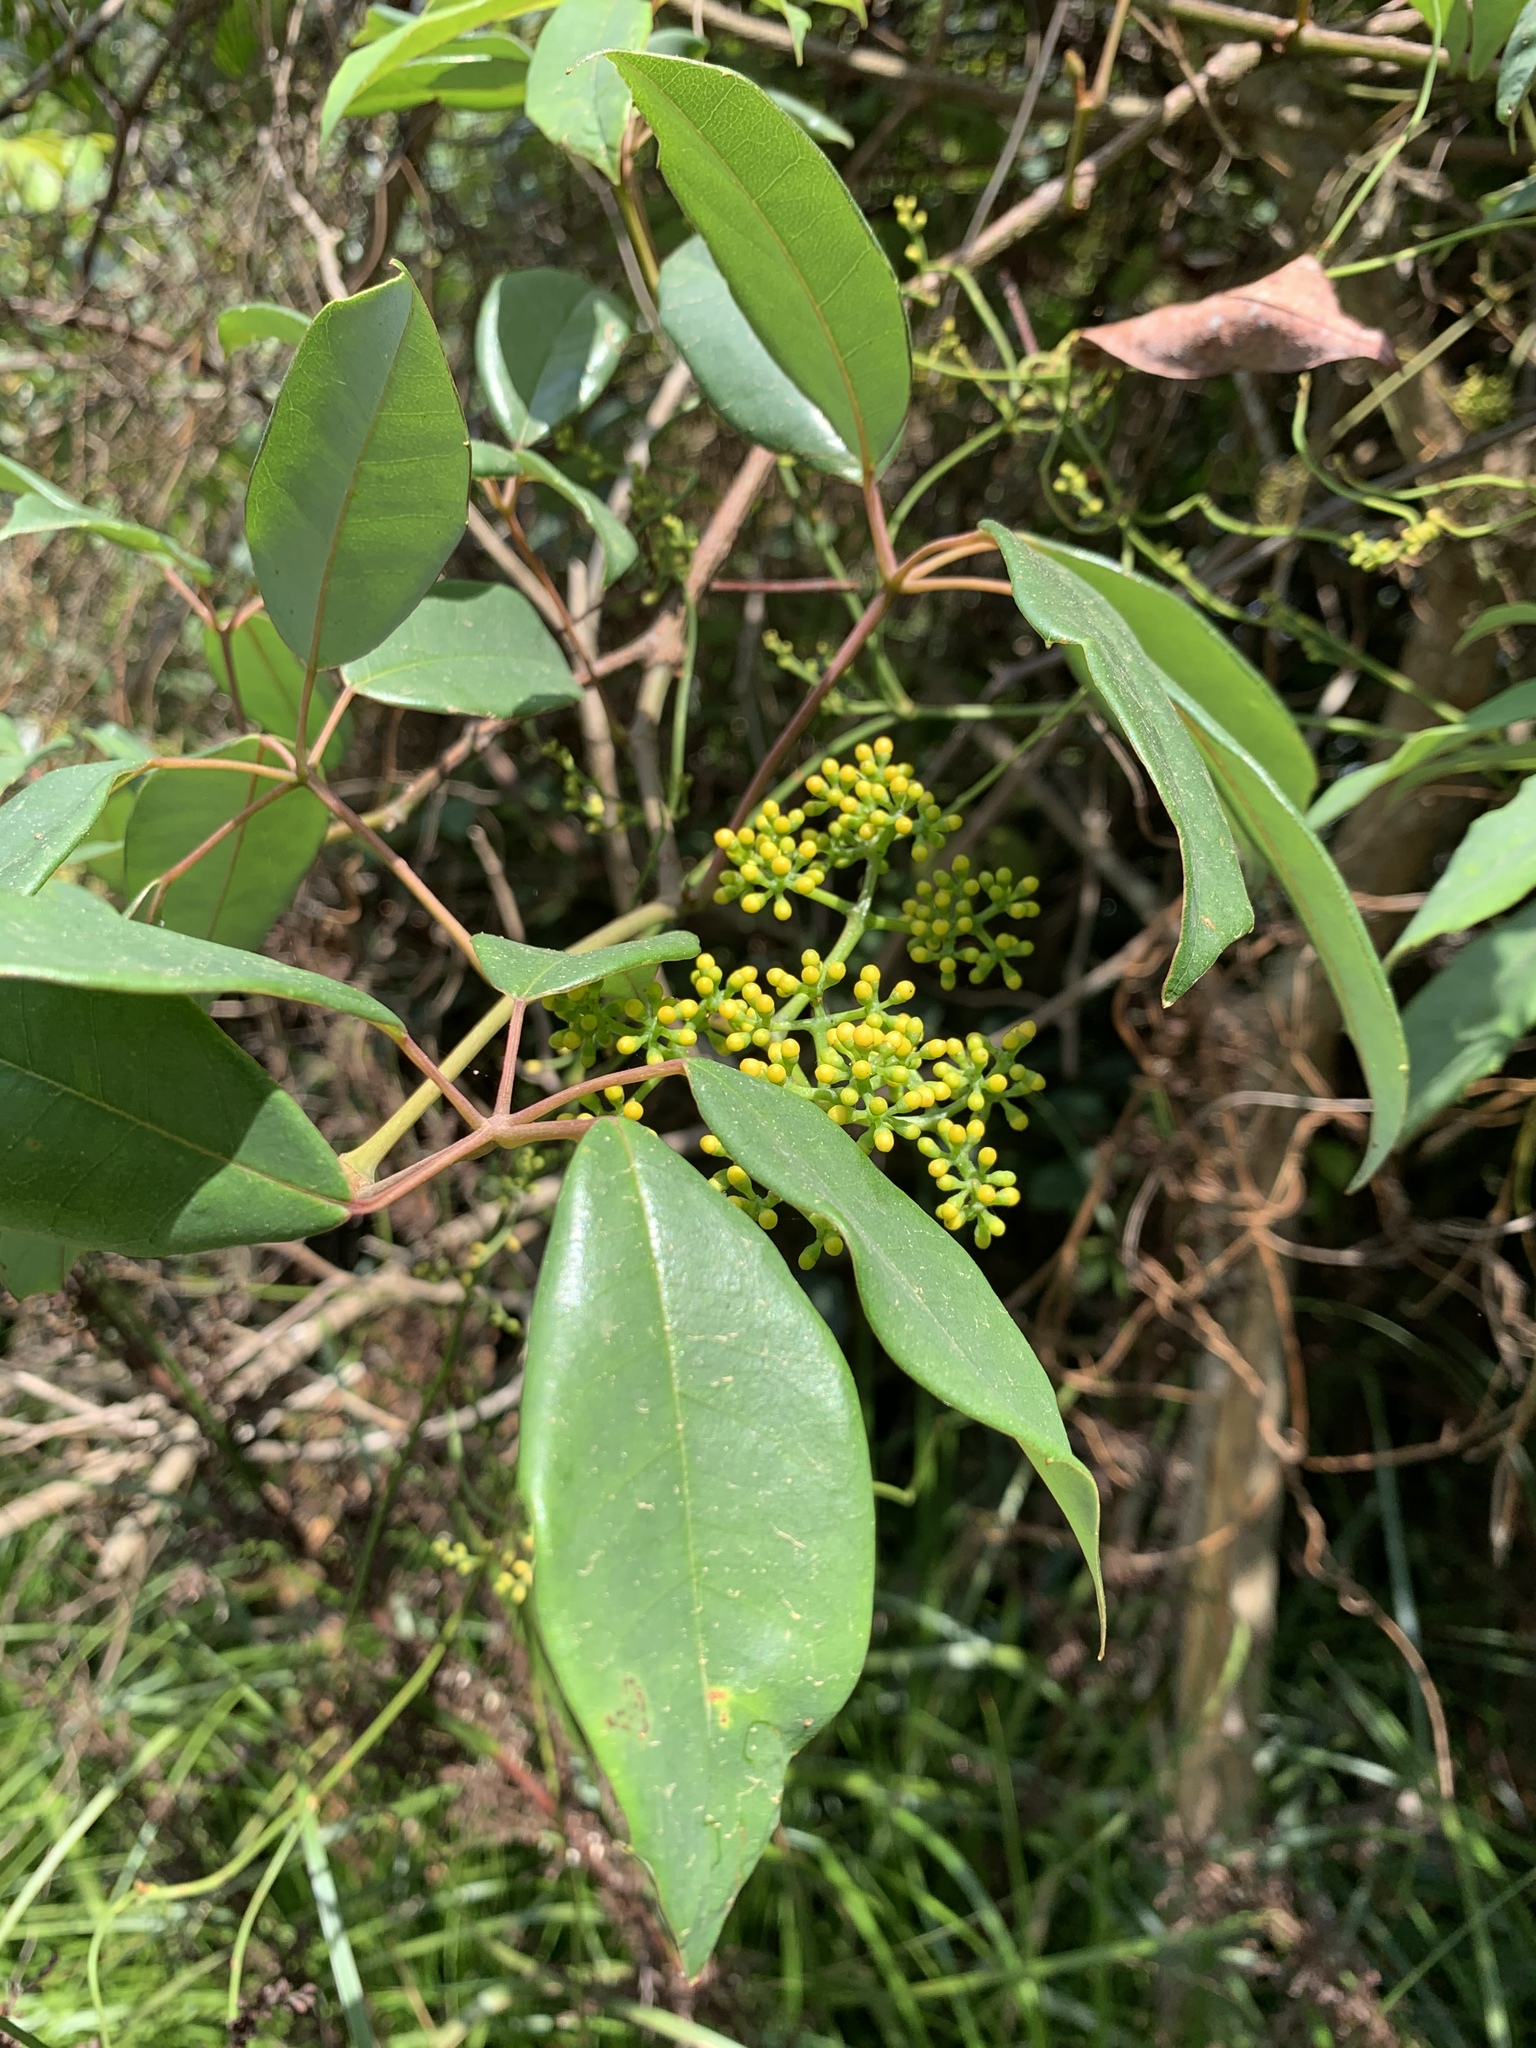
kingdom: Plantae
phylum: Tracheophyta
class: Magnoliopsida
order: Vitales
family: Vitaceae
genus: Nothocissus
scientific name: Nothocissus hypoglauca
